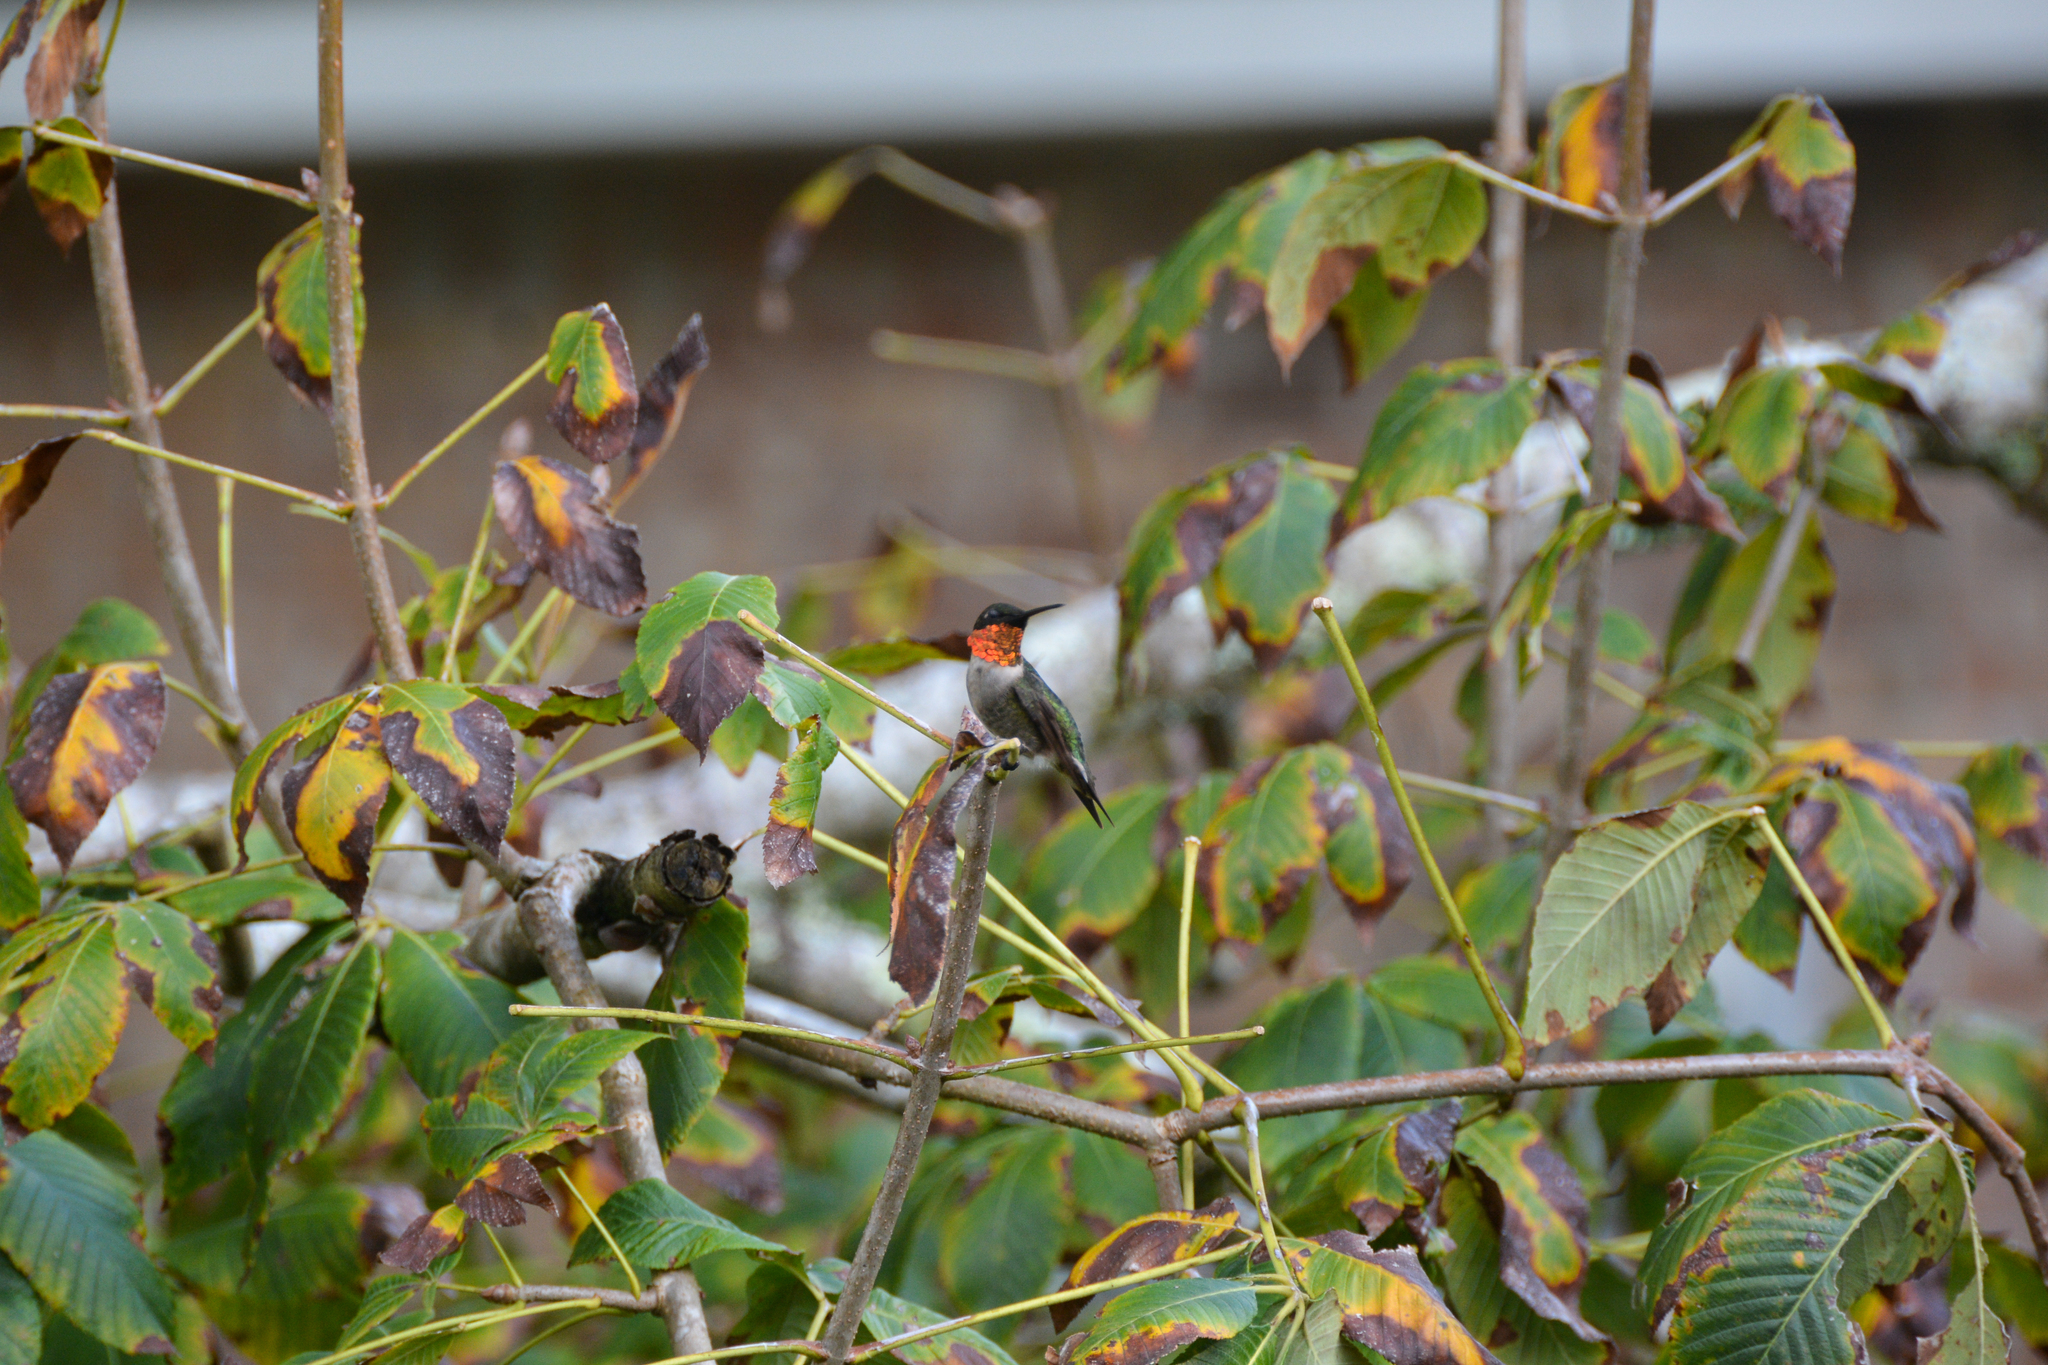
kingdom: Animalia
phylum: Chordata
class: Aves
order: Apodiformes
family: Trochilidae
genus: Archilochus
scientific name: Archilochus colubris
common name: Ruby-throated hummingbird
